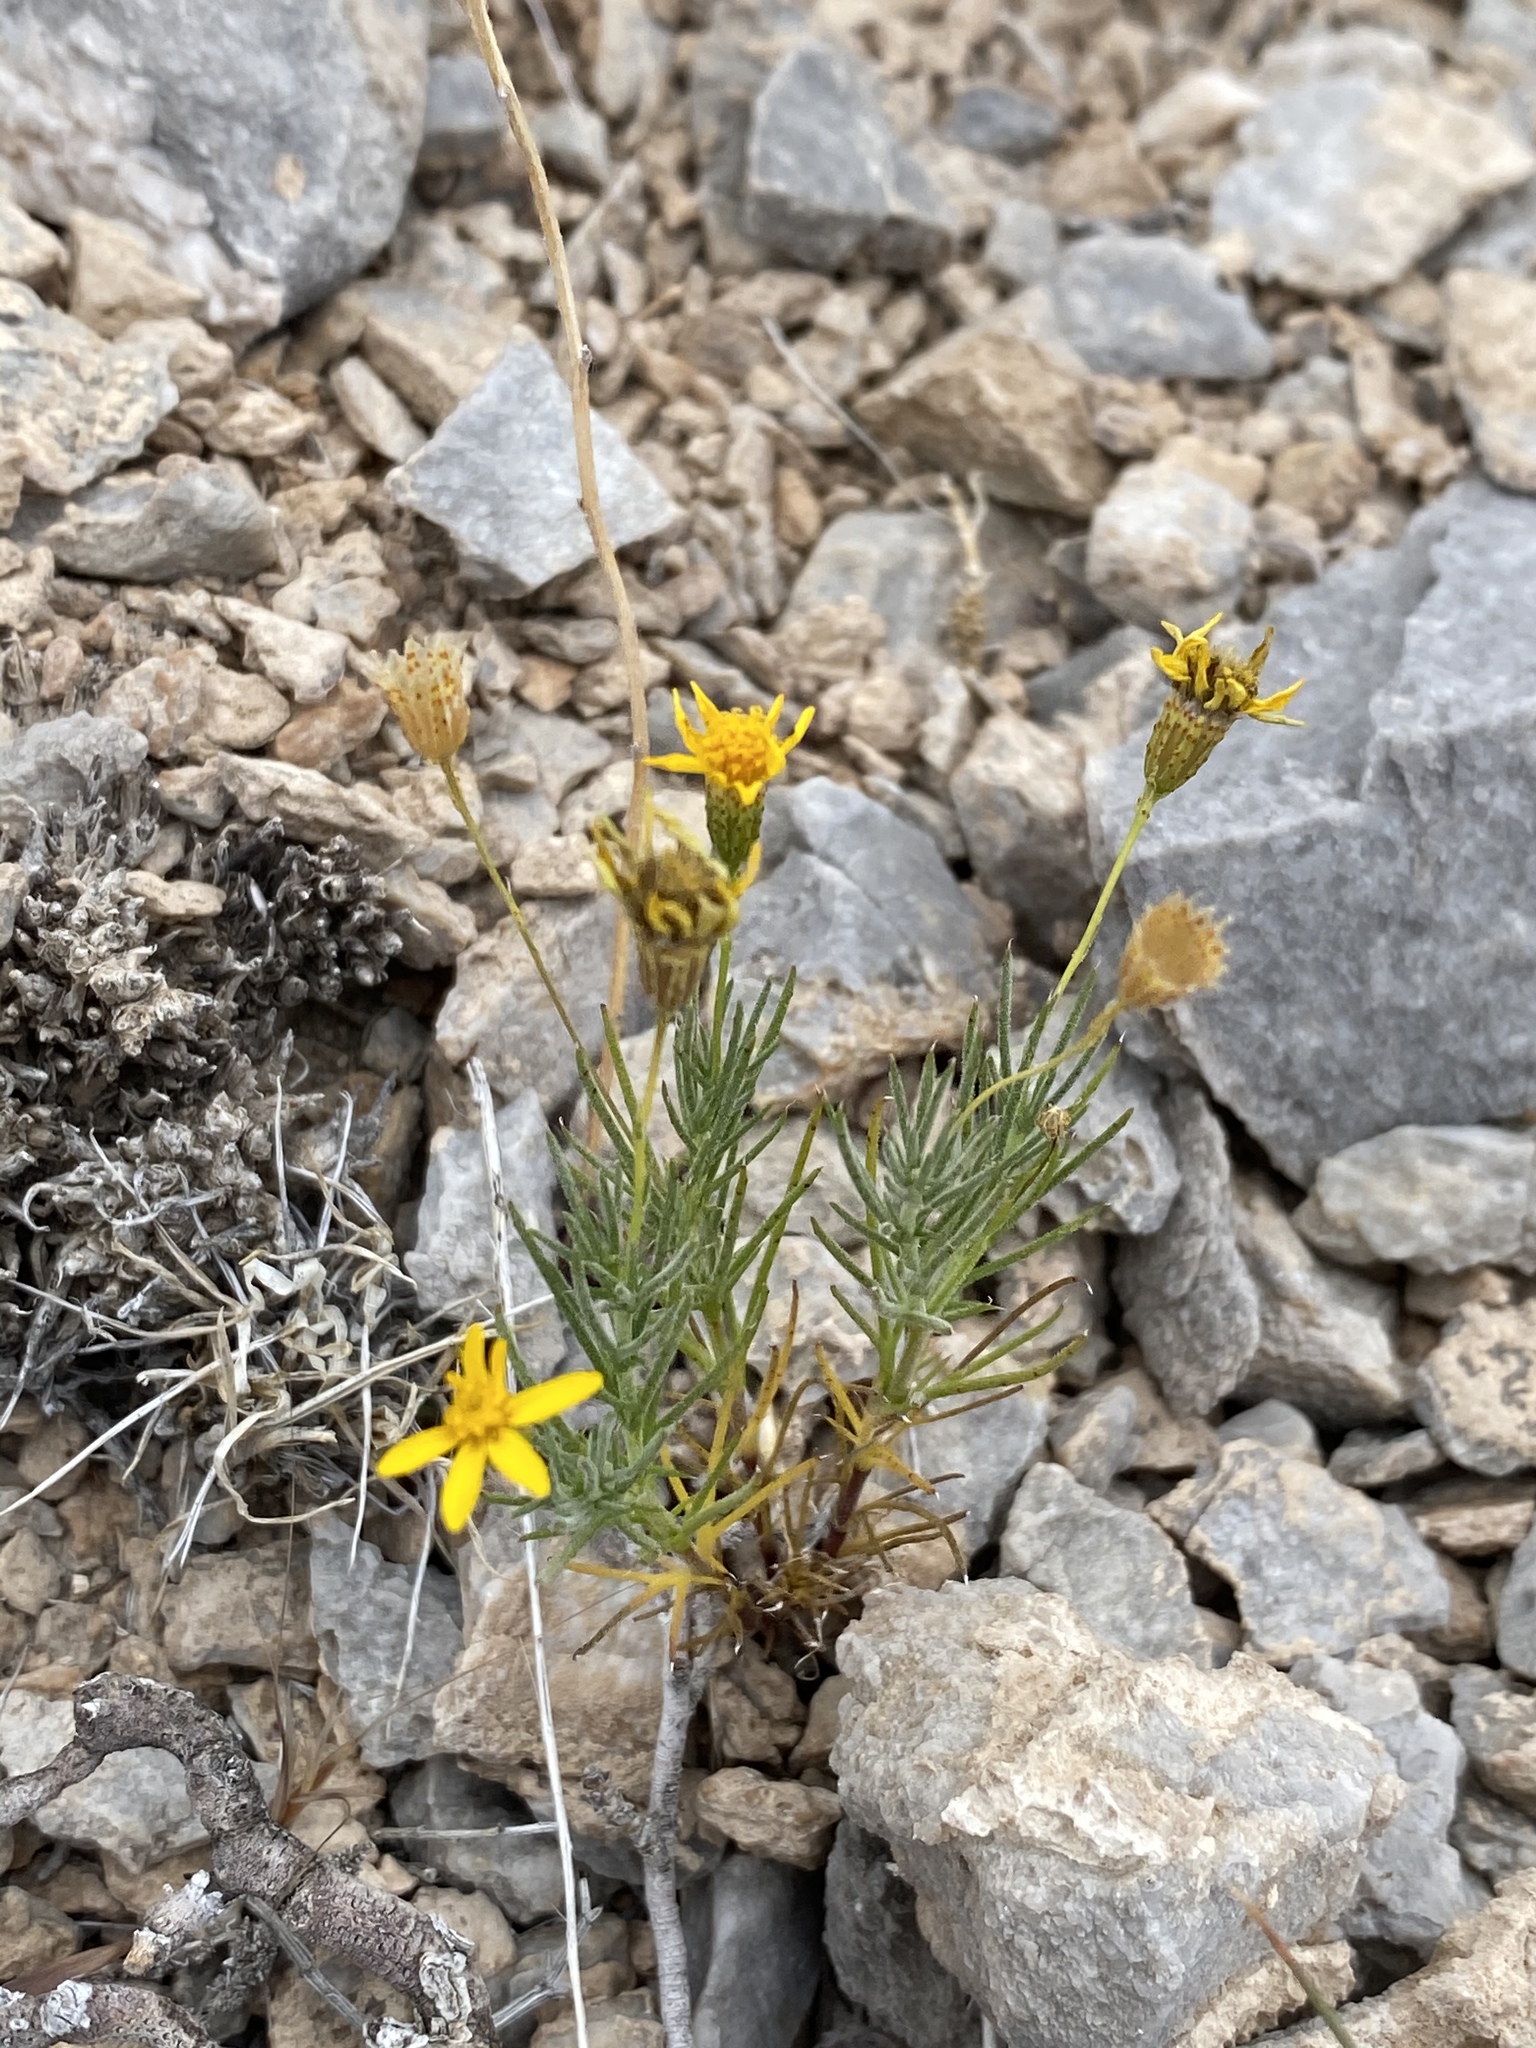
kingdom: Plantae
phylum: Tracheophyta
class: Magnoliopsida
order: Asterales
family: Asteraceae
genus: Thymophylla
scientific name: Thymophylla pentachaeta
